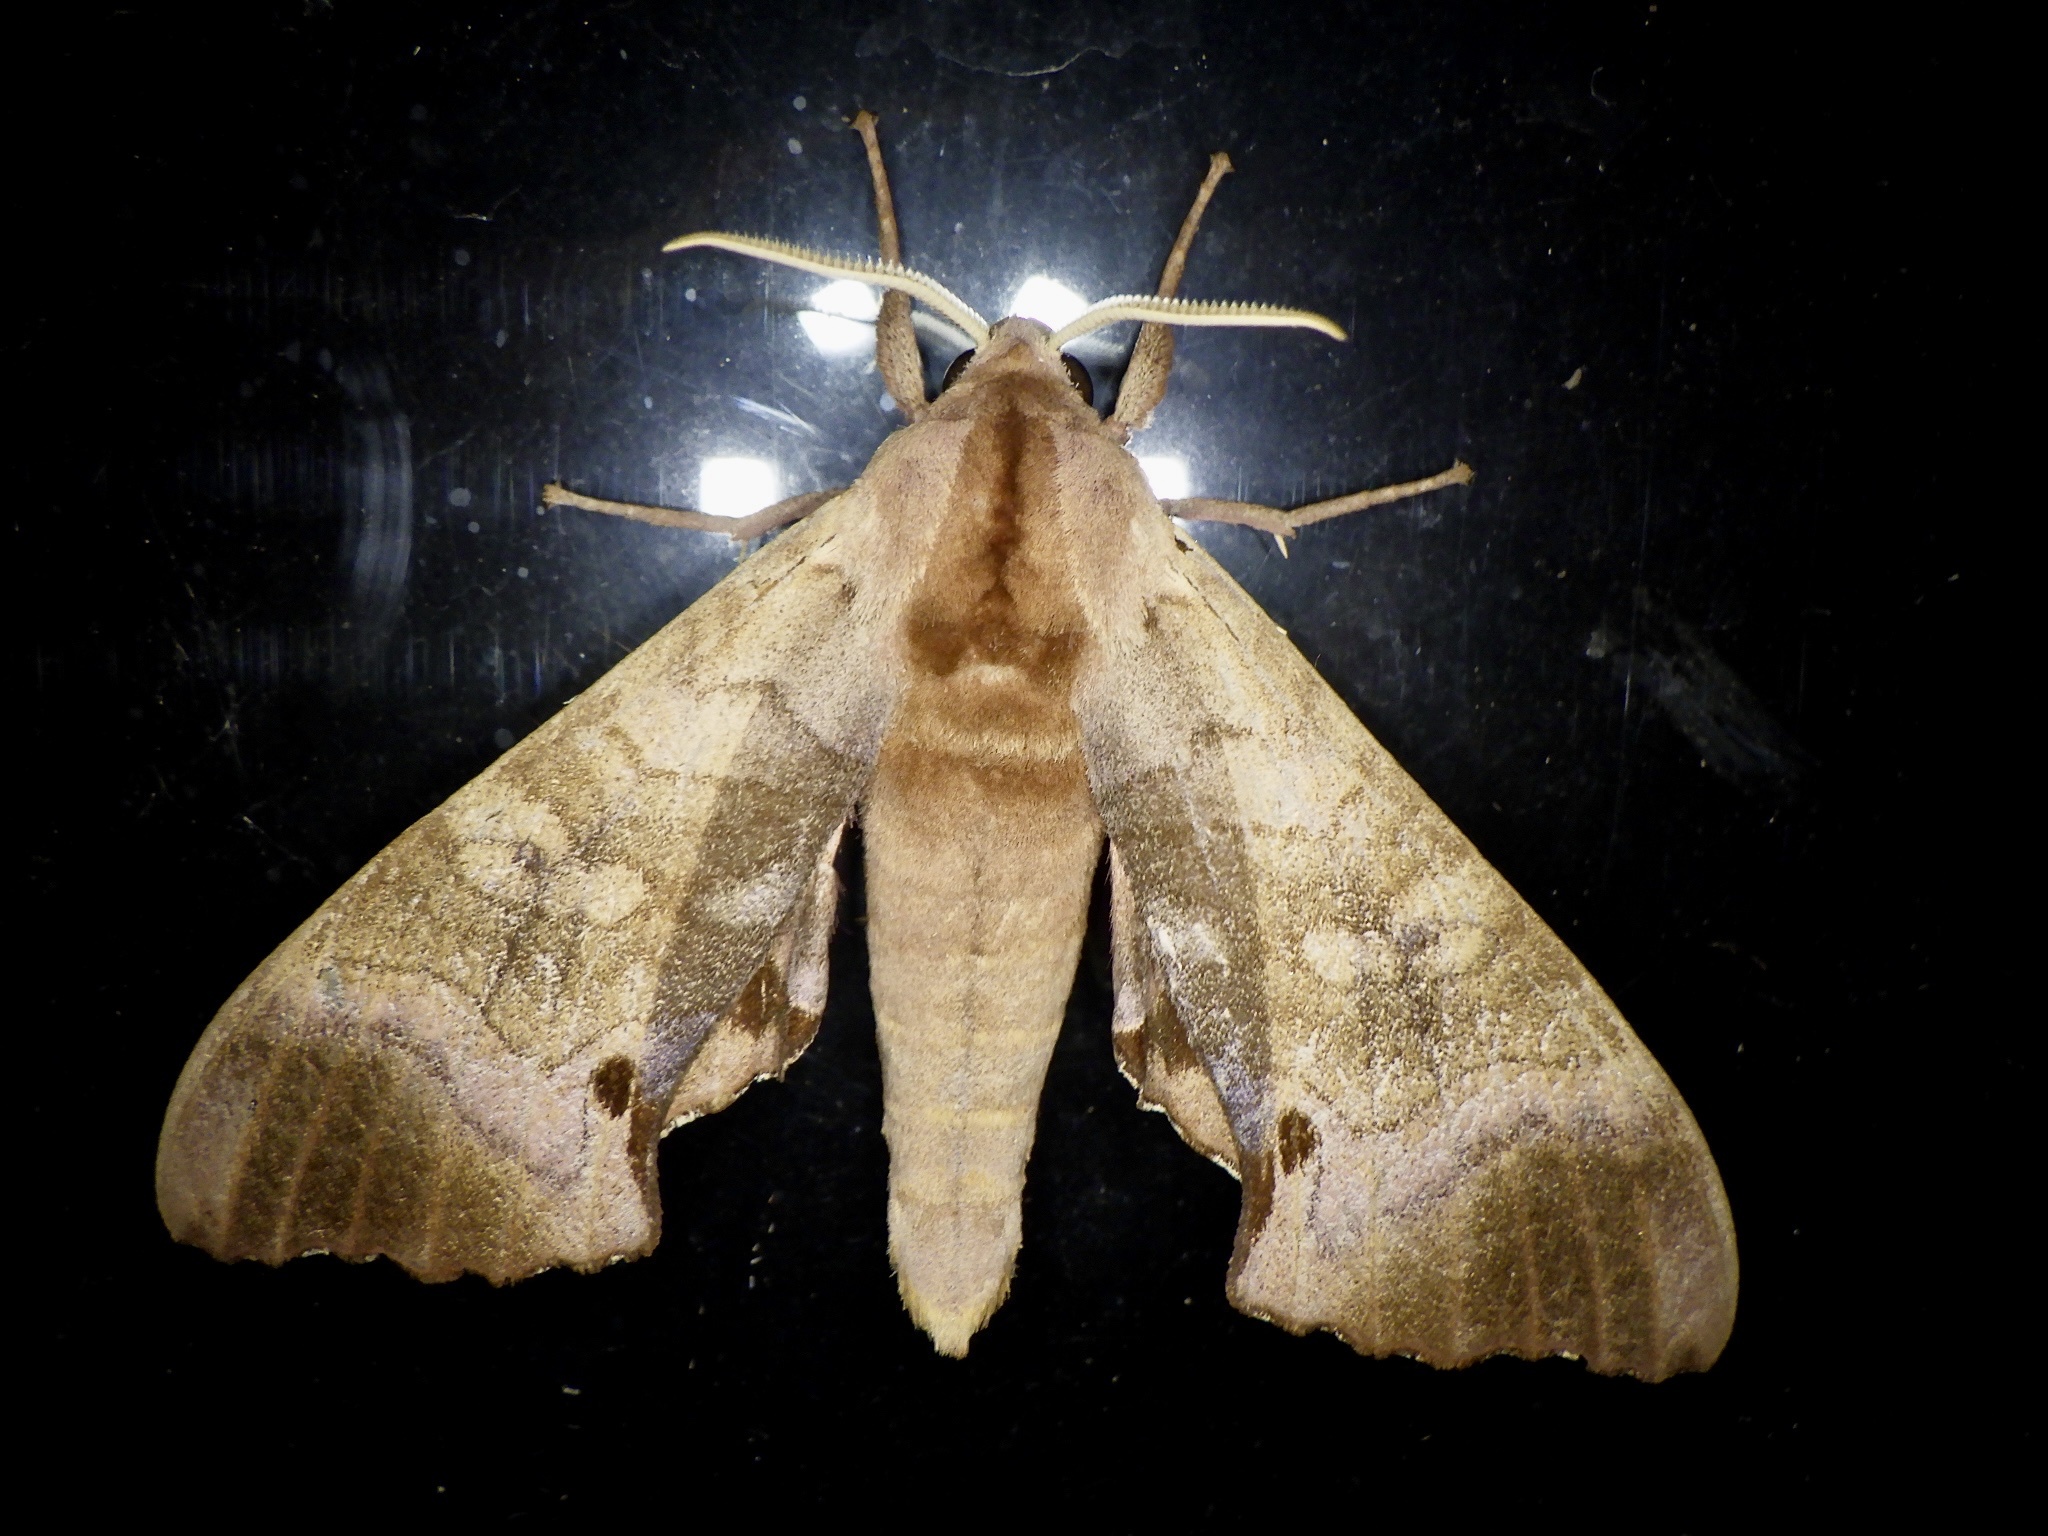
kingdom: Animalia
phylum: Arthropoda
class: Insecta
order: Lepidoptera
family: Sphingidae
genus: Marumba
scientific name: Marumba echephron
